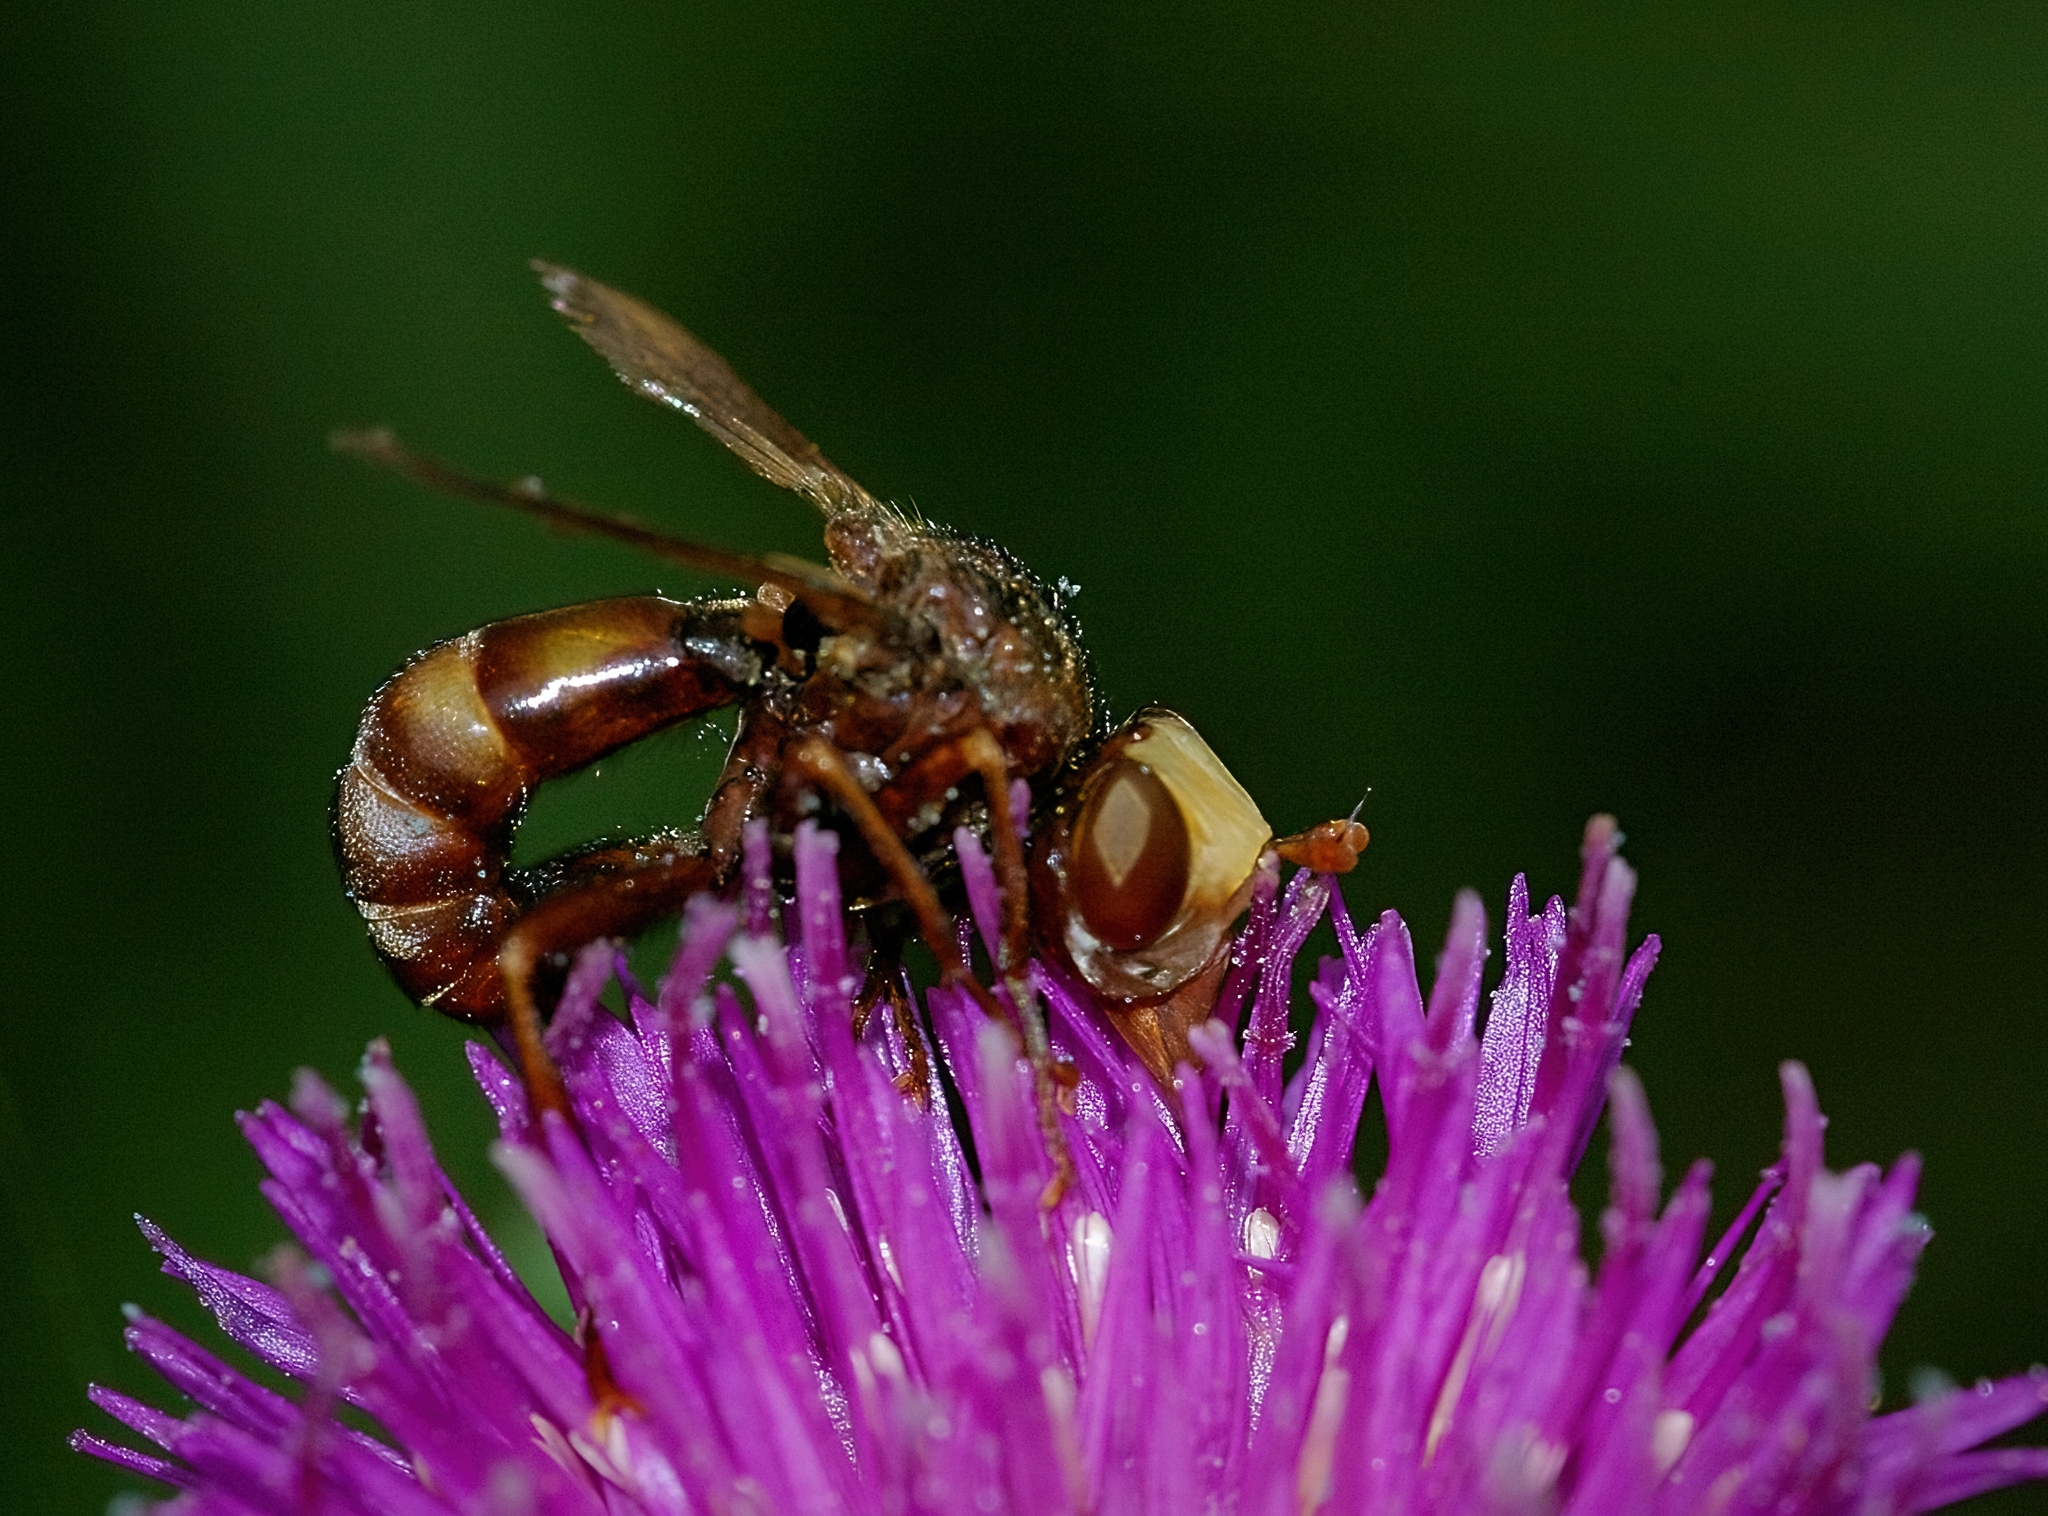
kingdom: Animalia
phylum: Arthropoda
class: Insecta
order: Diptera
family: Conopidae
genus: Sicus
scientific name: Sicus ferrugineus
